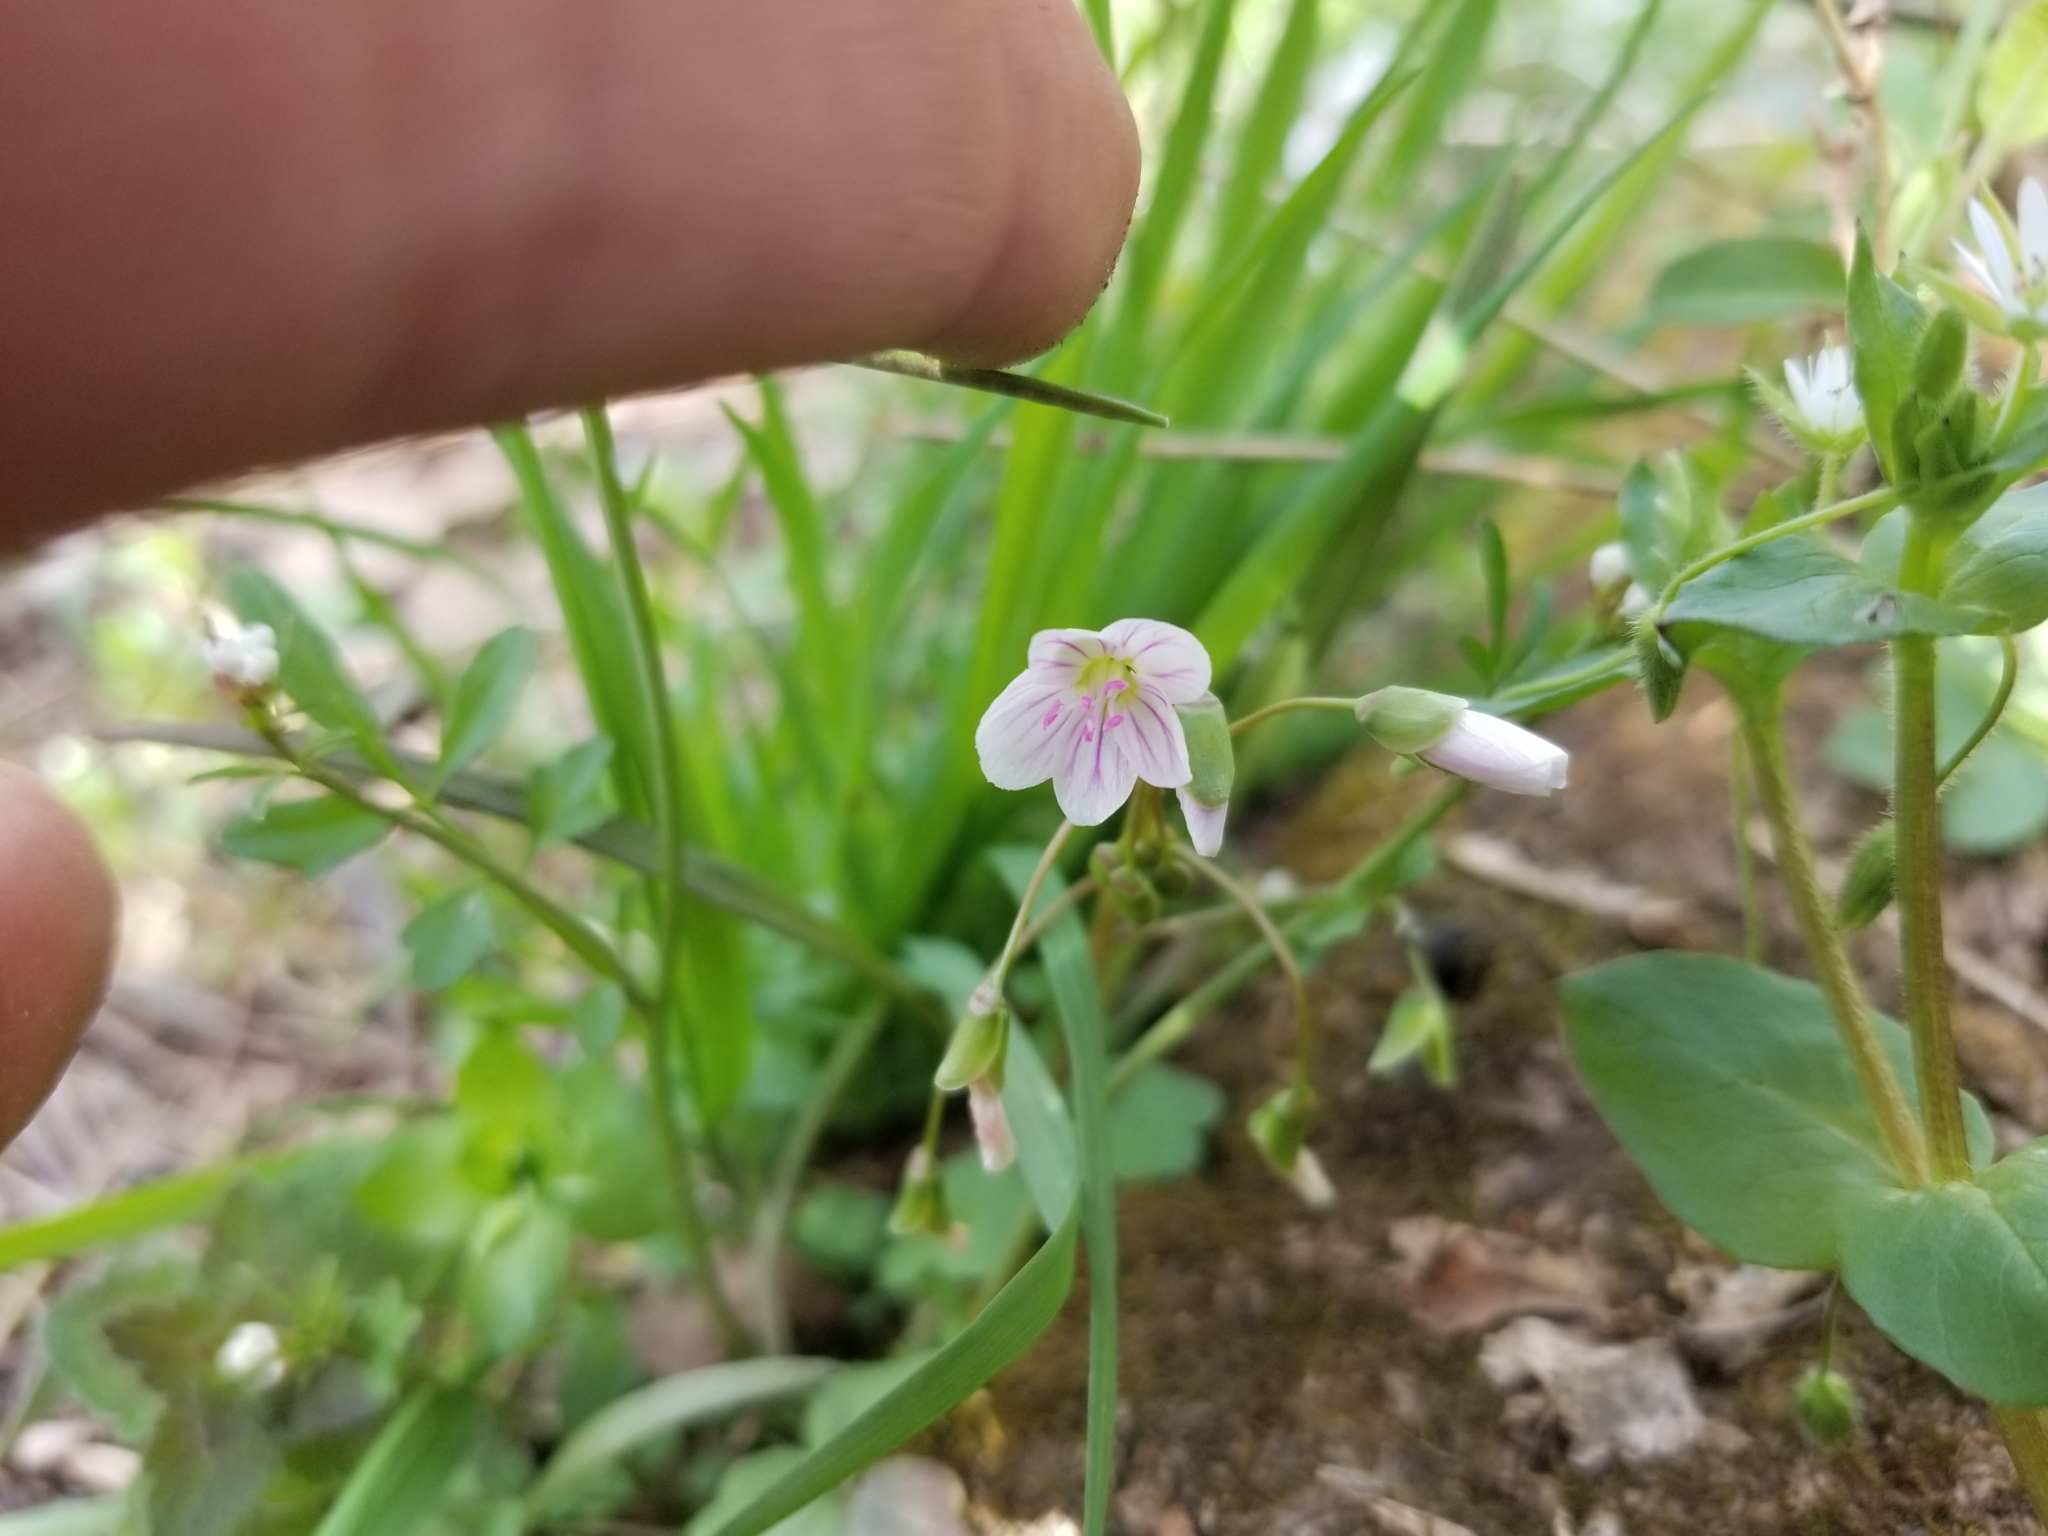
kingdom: Plantae
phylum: Tracheophyta
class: Magnoliopsida
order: Caryophyllales
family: Montiaceae
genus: Claytonia
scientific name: Claytonia virginica
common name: Virginia springbeauty
